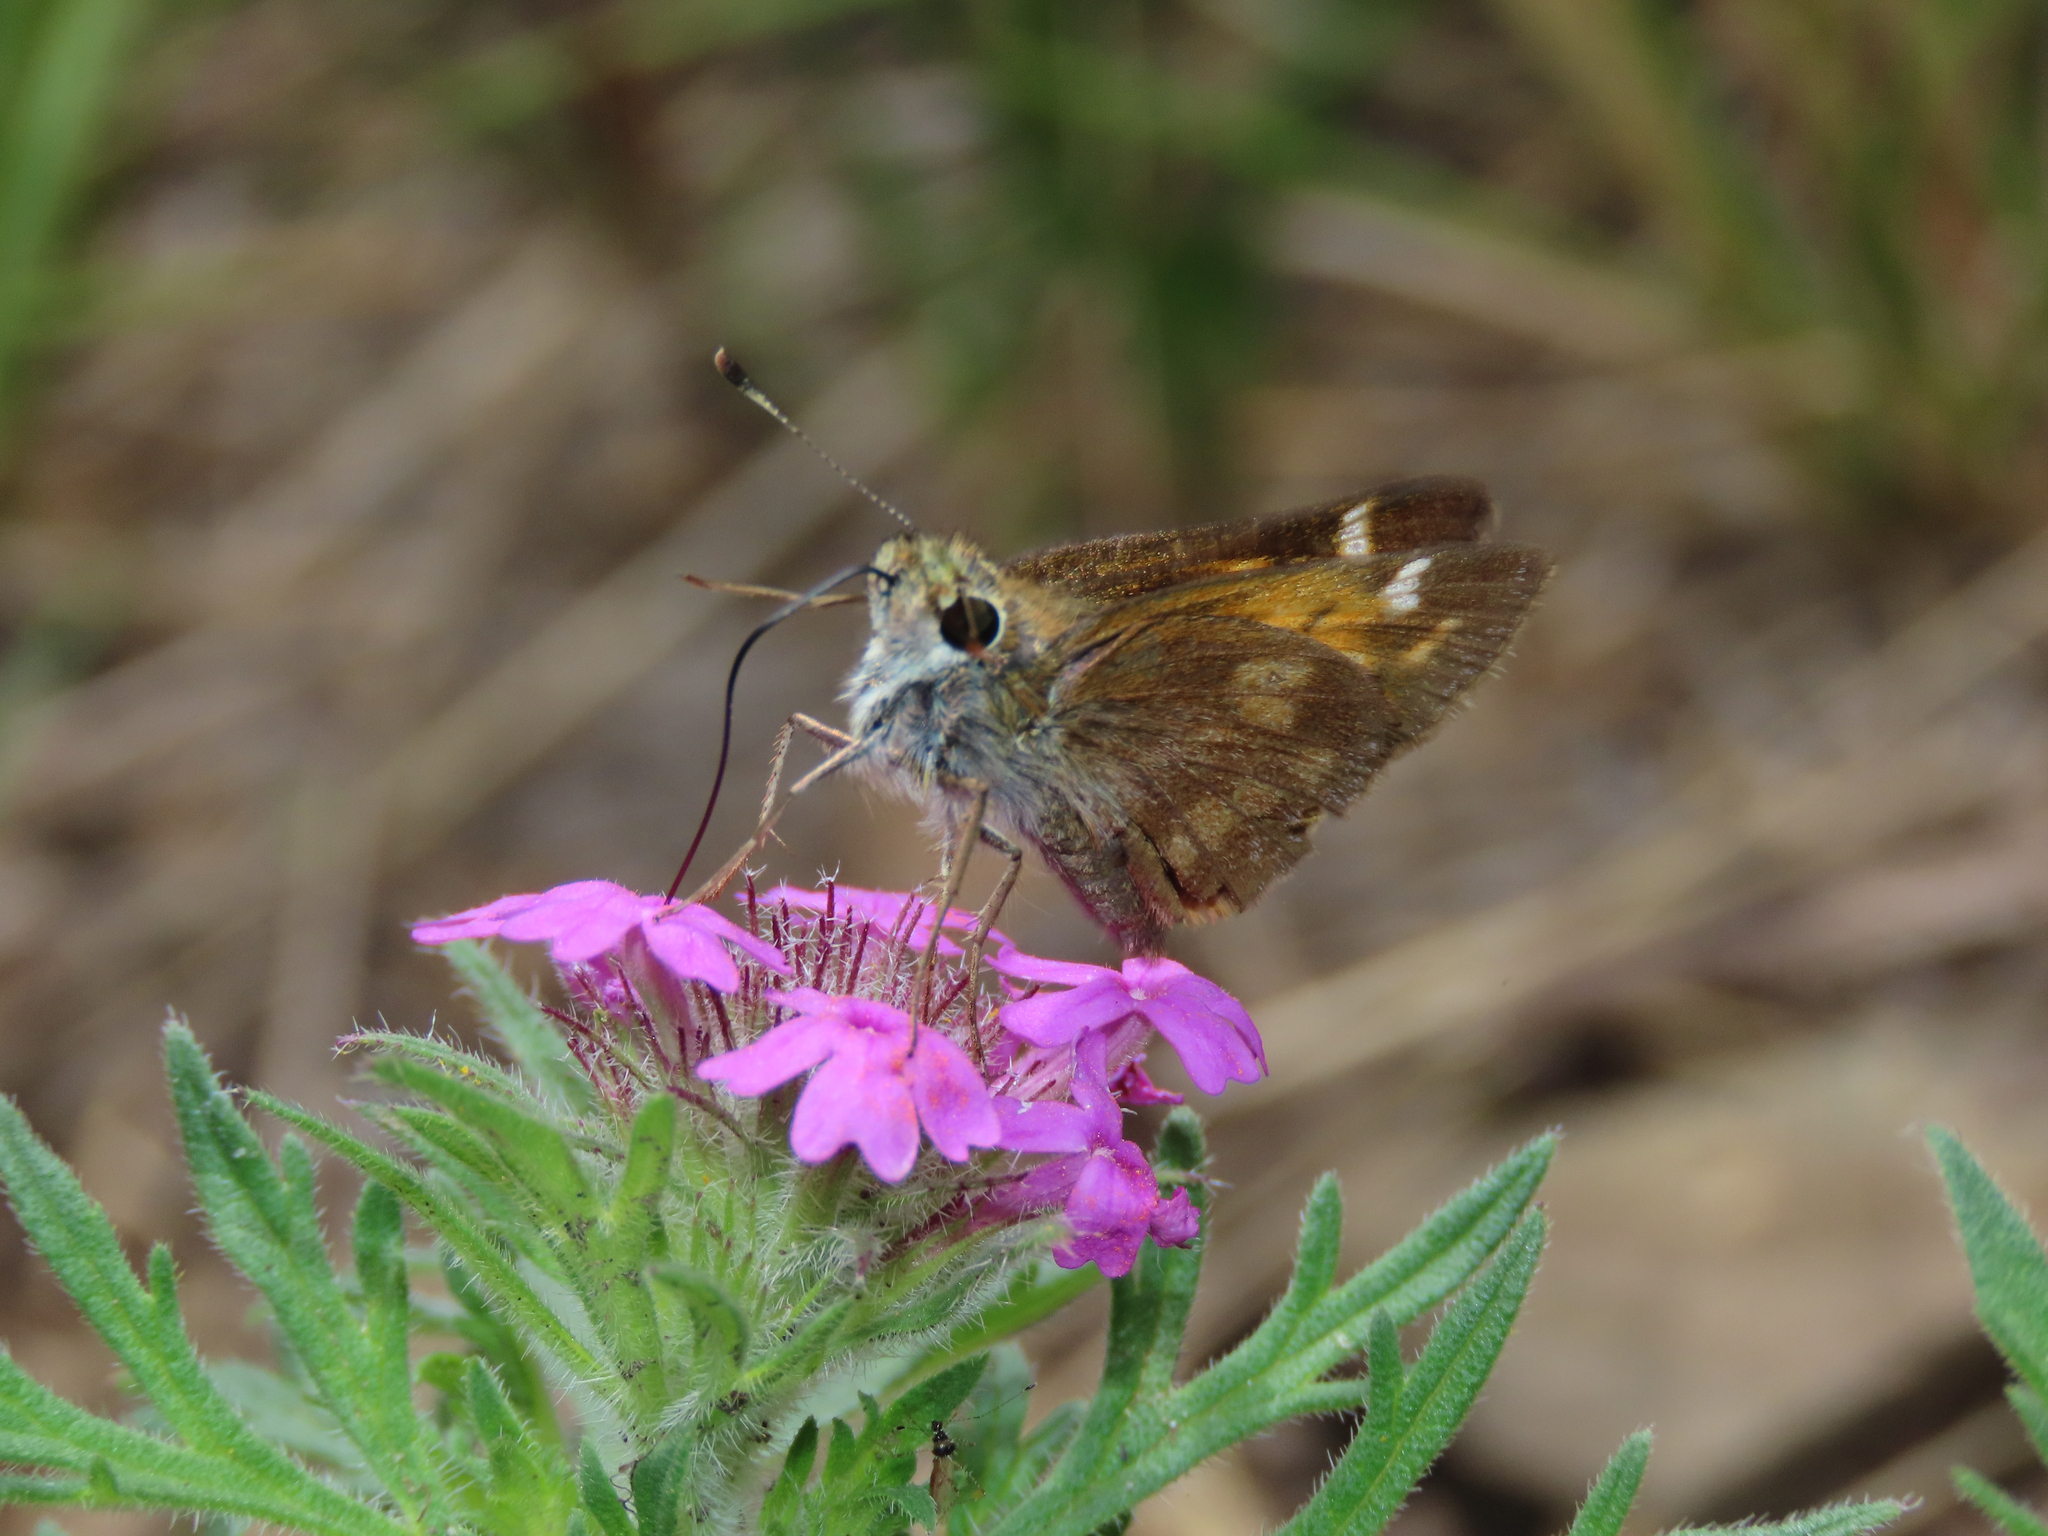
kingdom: Animalia
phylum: Arthropoda
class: Insecta
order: Lepidoptera
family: Hesperiidae
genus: Lon
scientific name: Lon taxiles
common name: Taxiles skipper
